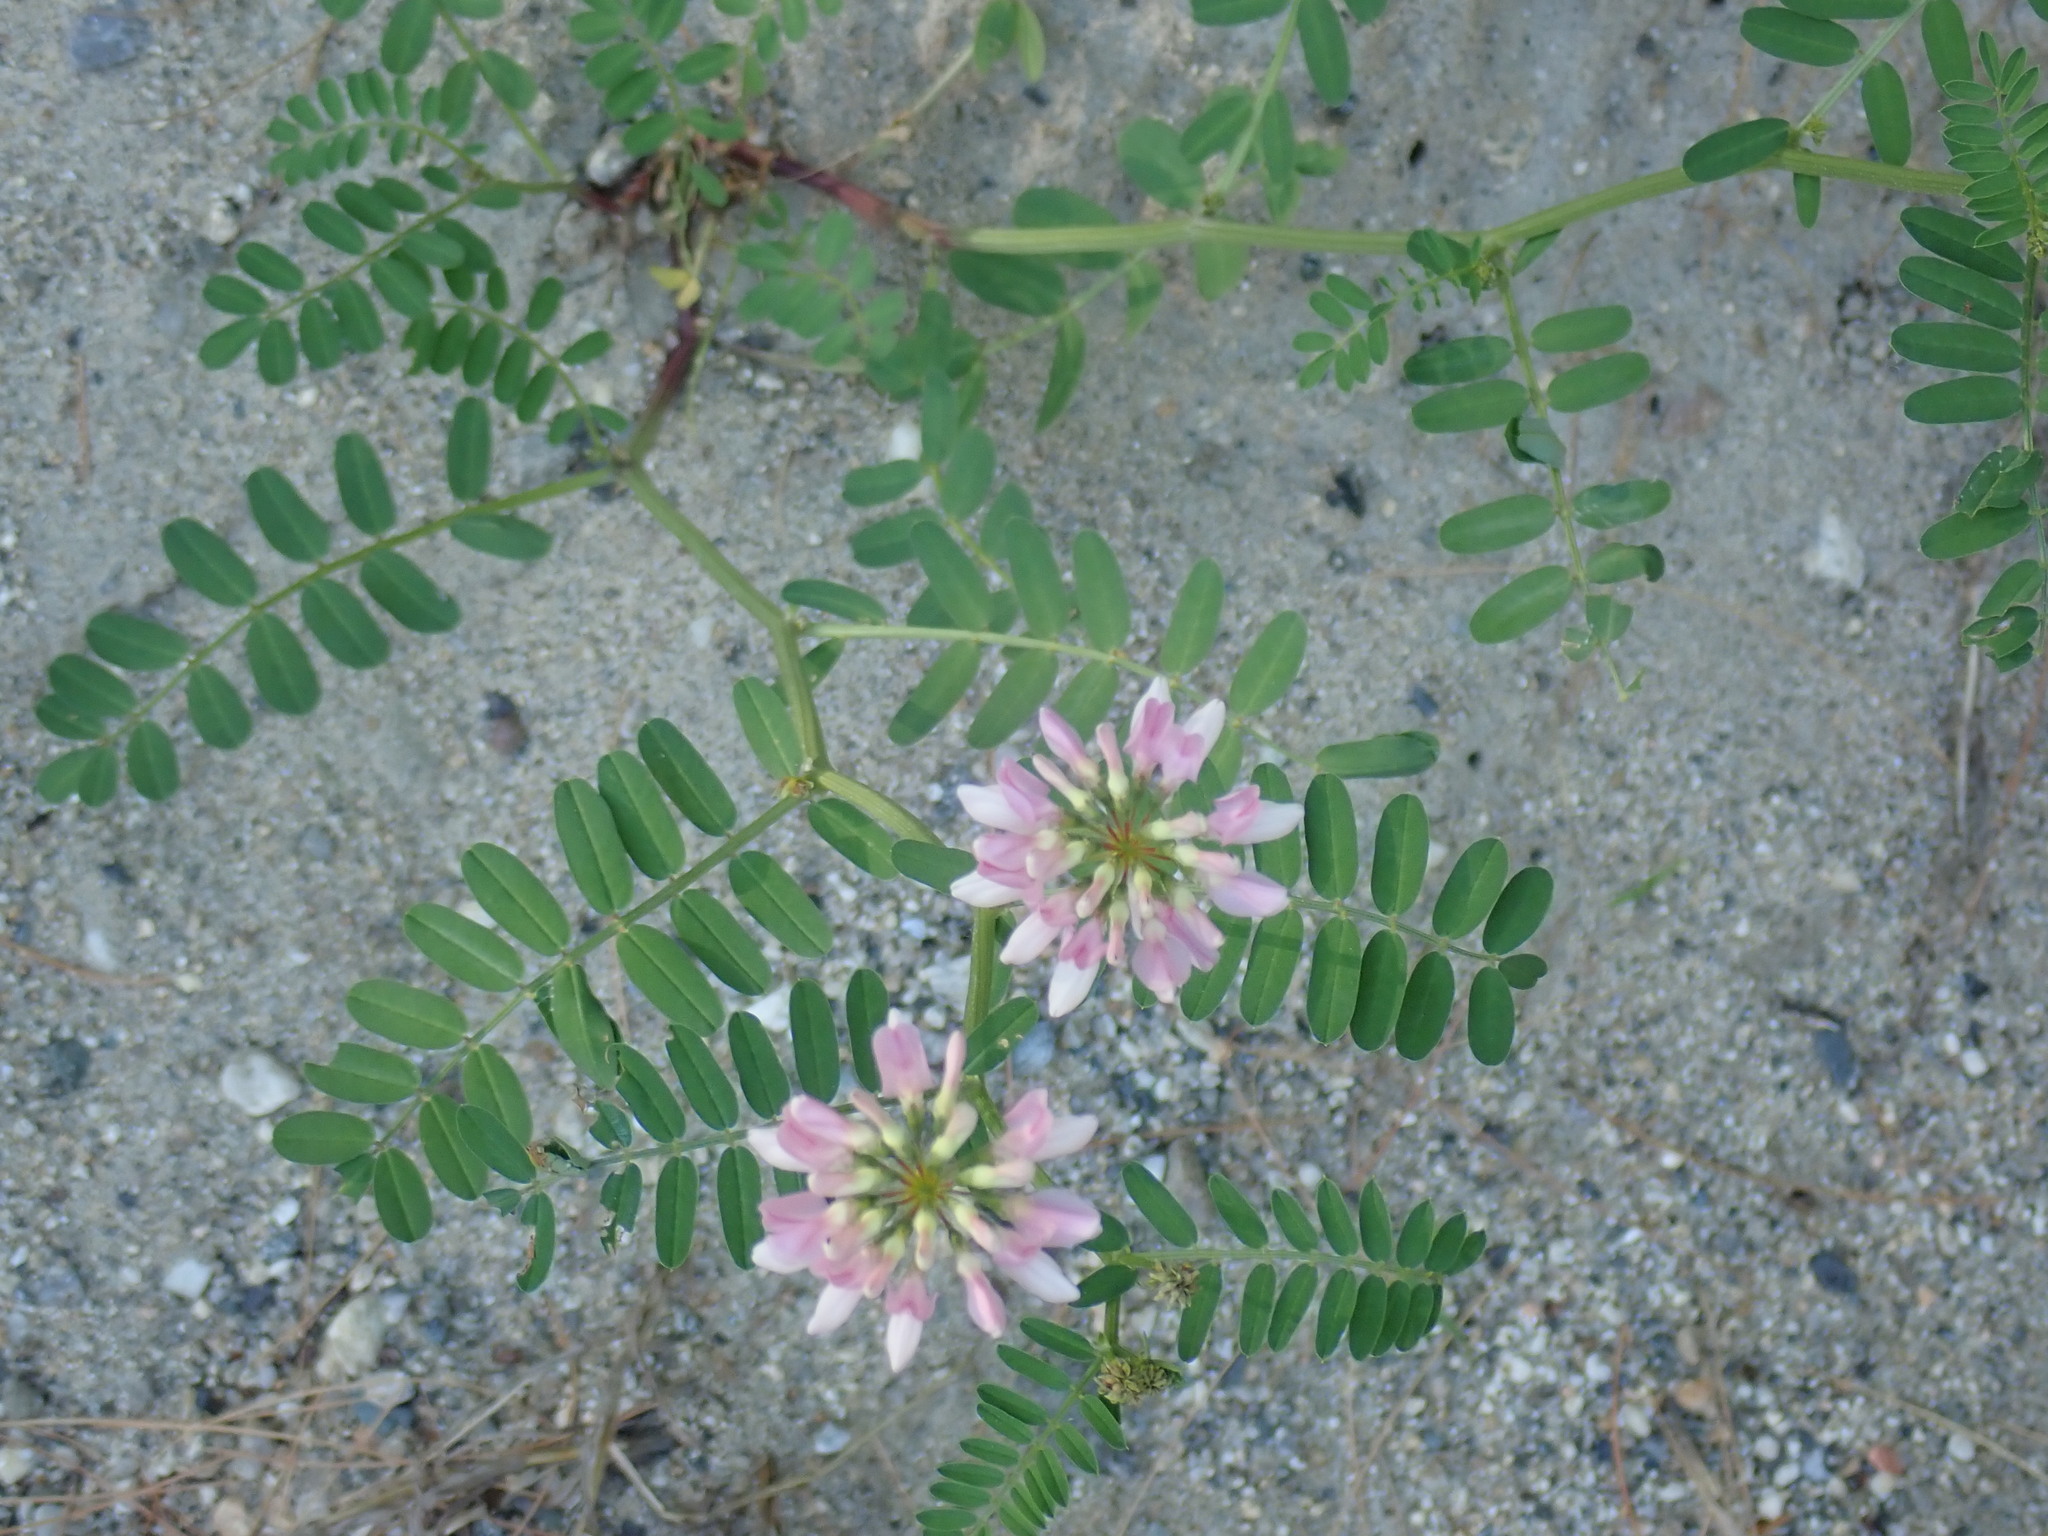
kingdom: Plantae
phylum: Tracheophyta
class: Magnoliopsida
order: Fabales
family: Fabaceae
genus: Coronilla
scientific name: Coronilla varia
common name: Crownvetch
